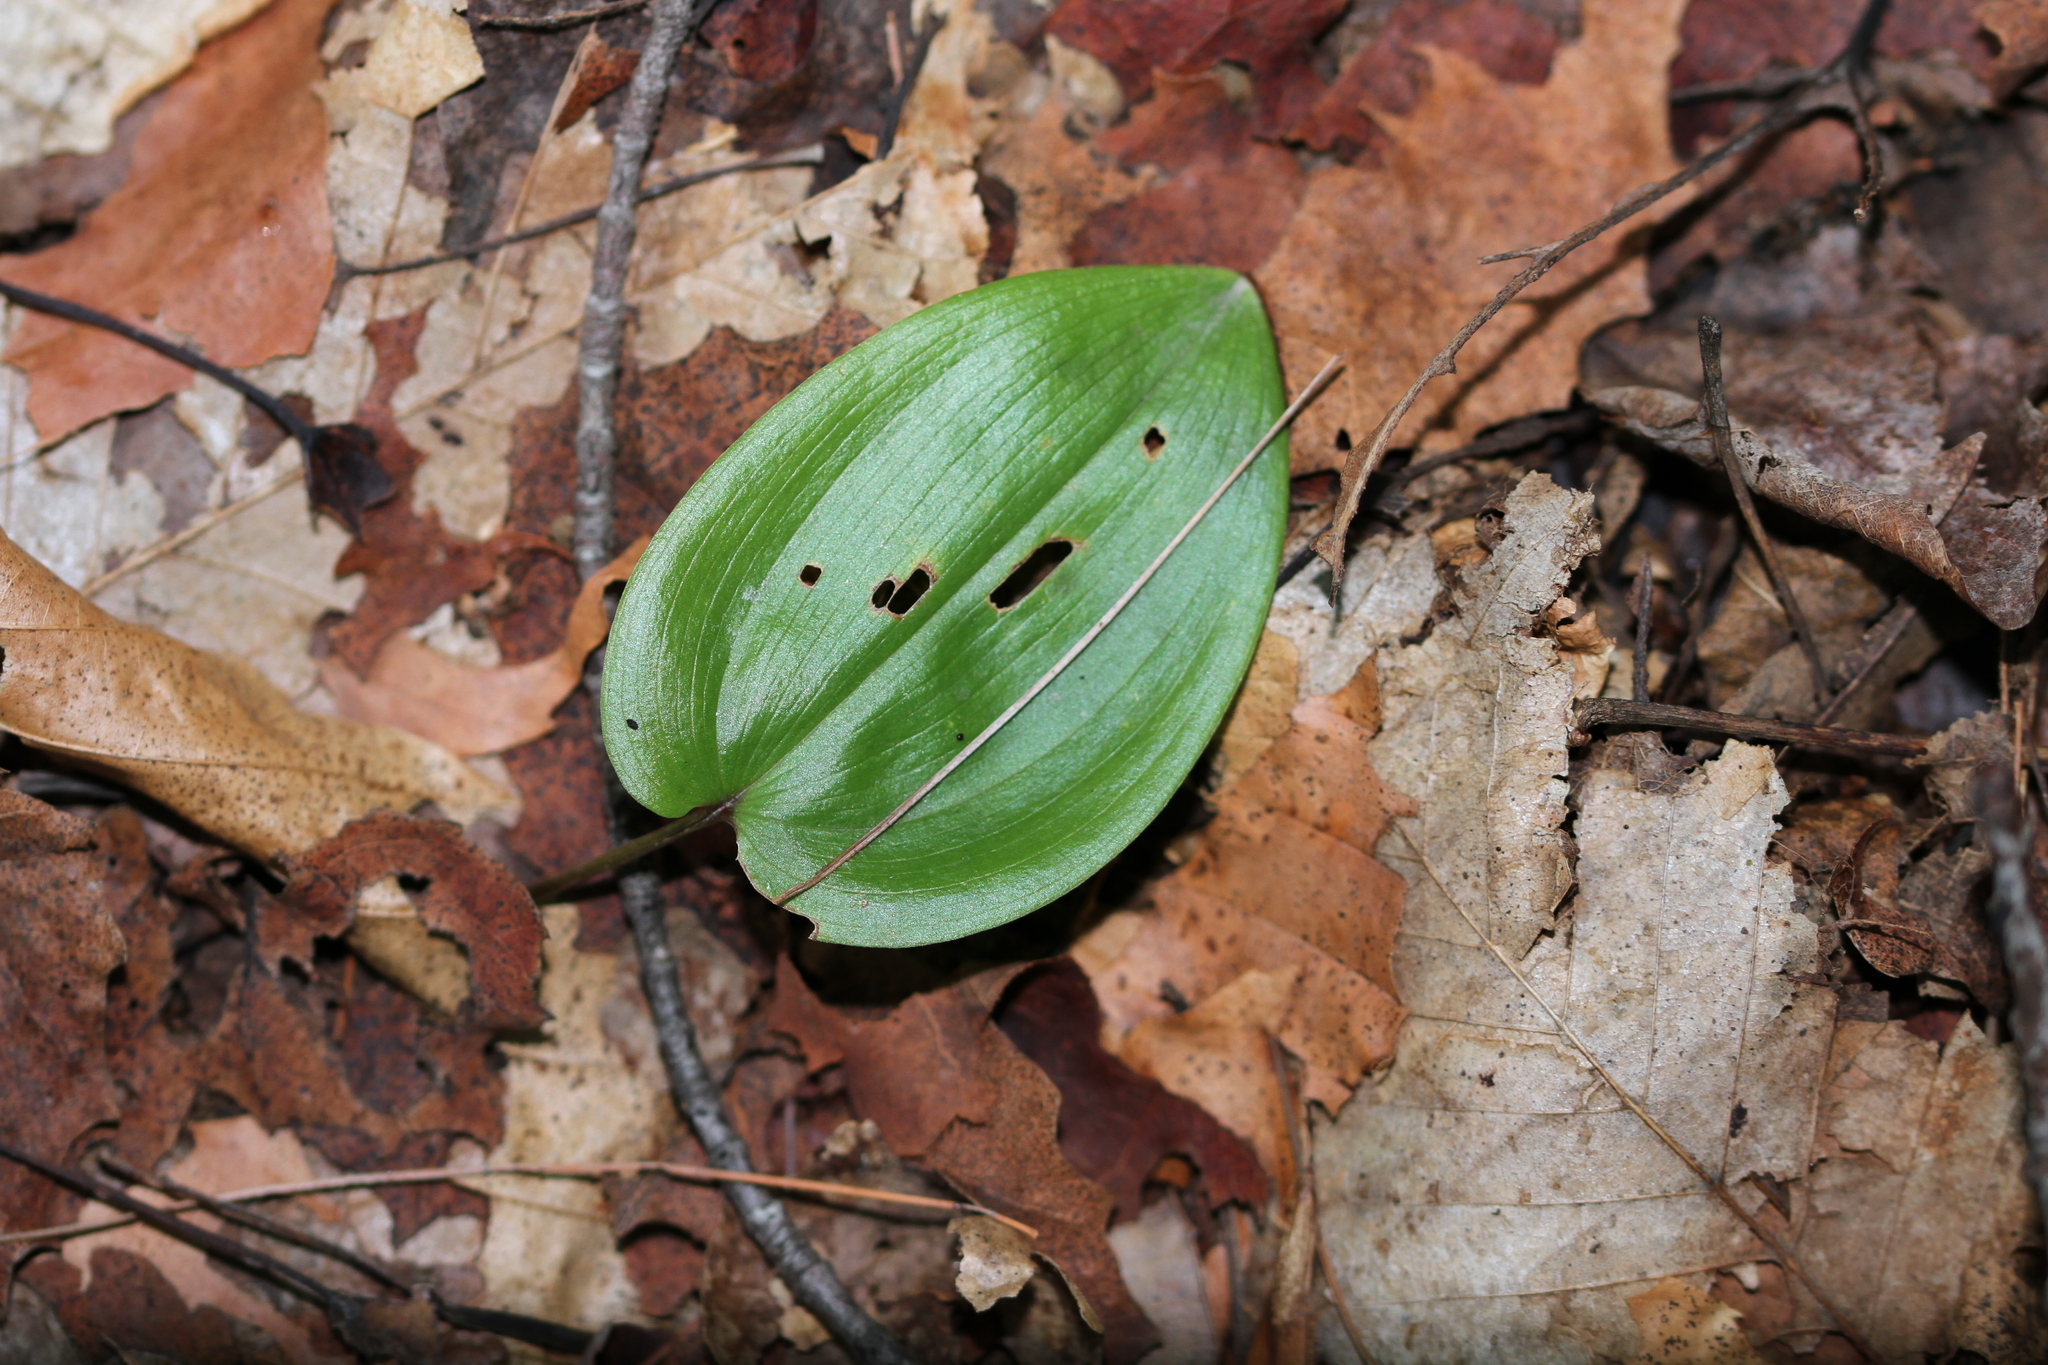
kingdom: Plantae
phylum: Tracheophyta
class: Liliopsida
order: Asparagales
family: Asparagaceae
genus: Maianthemum
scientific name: Maianthemum canadense
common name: False lily-of-the-valley
